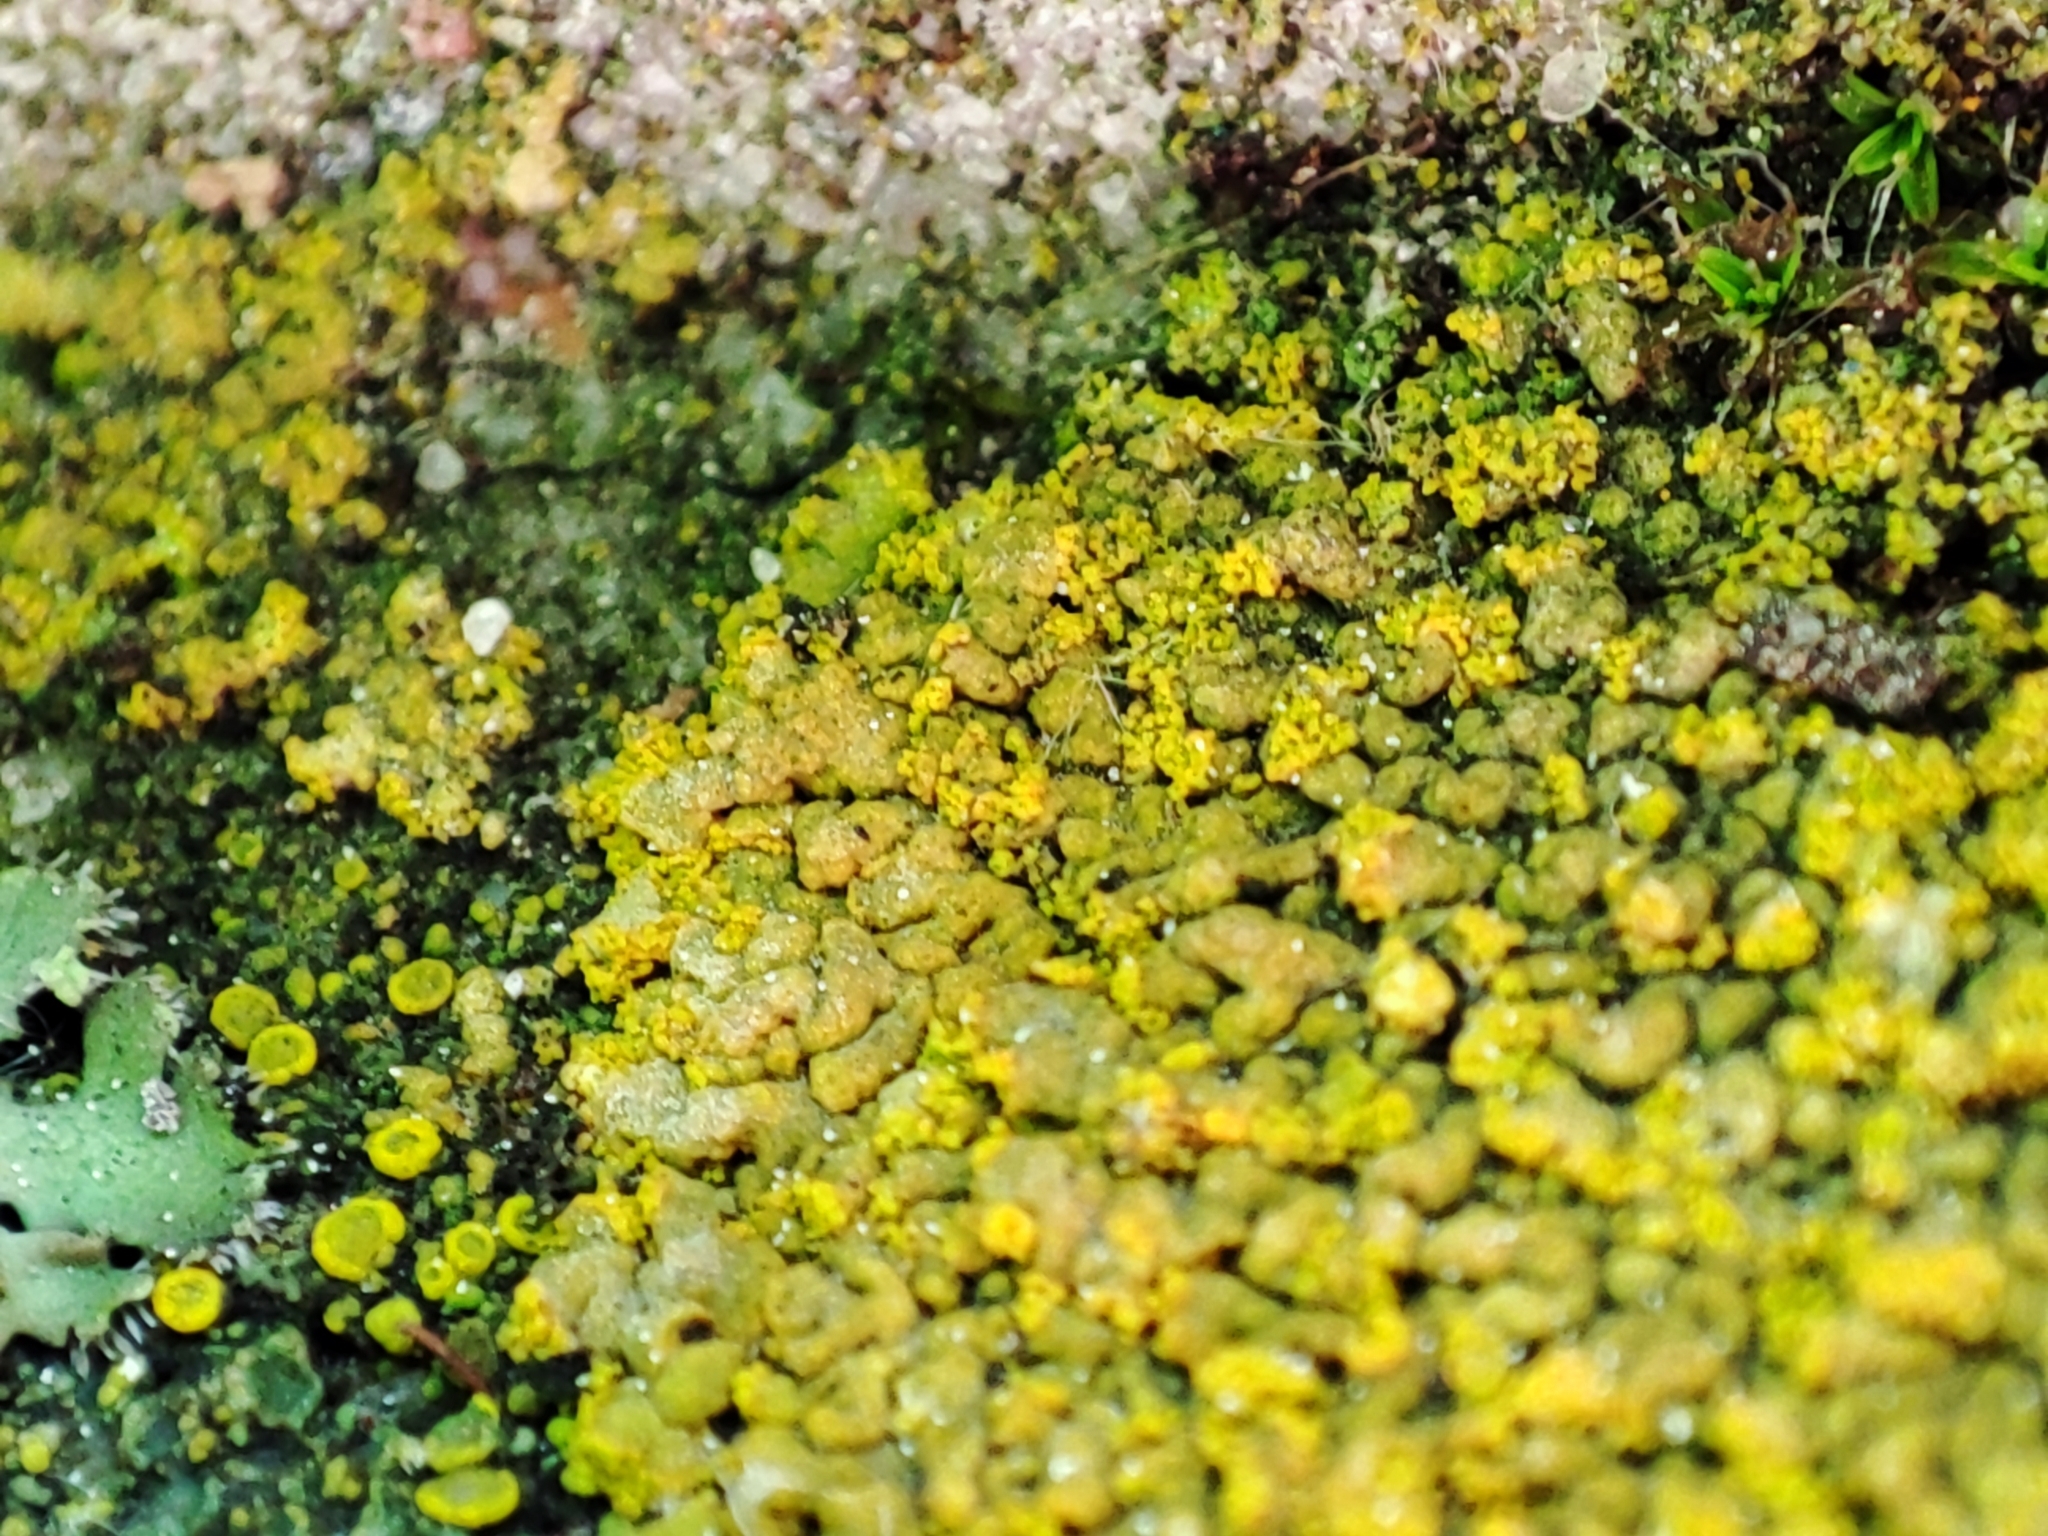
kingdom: Fungi
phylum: Ascomycota
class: Lecanoromycetes
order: Teloschistales
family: Teloschistaceae
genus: Calogaya
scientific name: Calogaya decipiens
